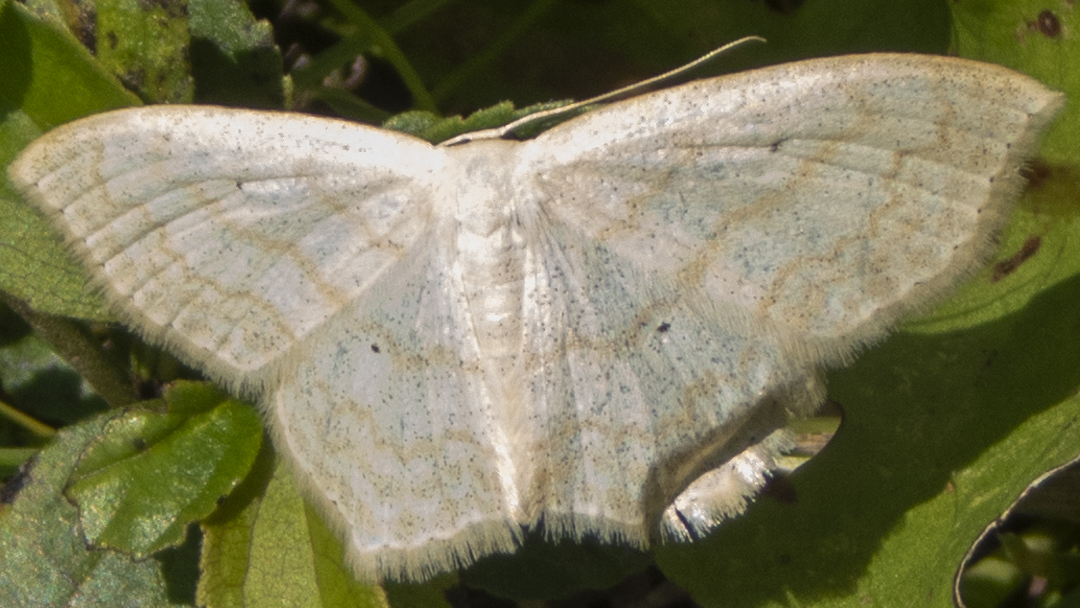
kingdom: Animalia
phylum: Arthropoda
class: Insecta
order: Lepidoptera
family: Geometridae
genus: Scopula
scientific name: Scopula limboundata
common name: Large lace border
